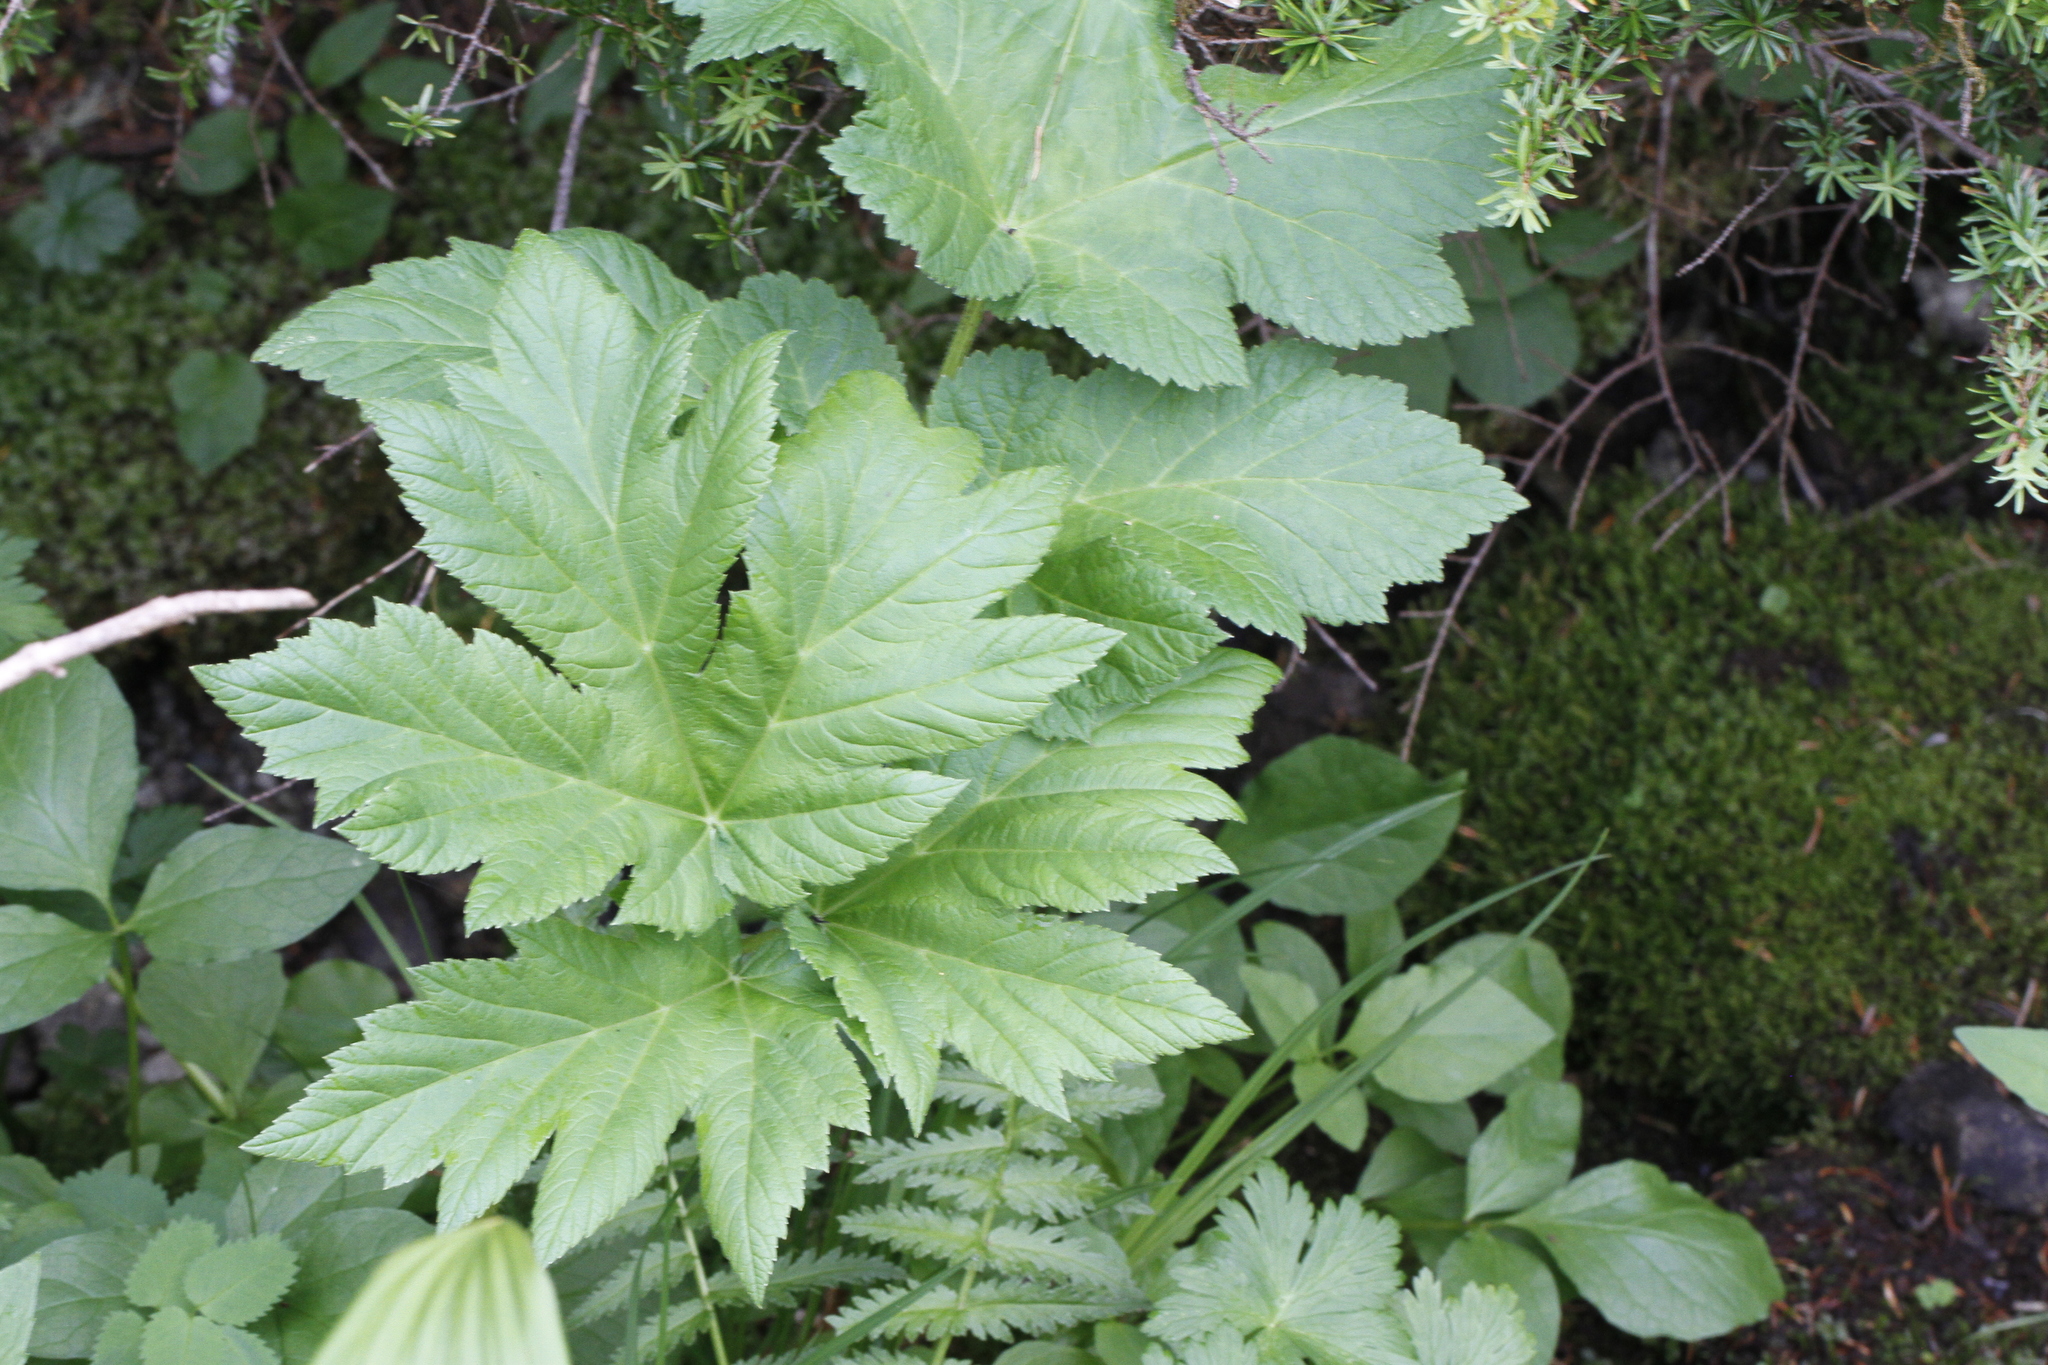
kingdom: Plantae
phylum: Tracheophyta
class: Magnoliopsida
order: Apiales
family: Apiaceae
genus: Heracleum
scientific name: Heracleum maximum
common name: American cow parsnip
